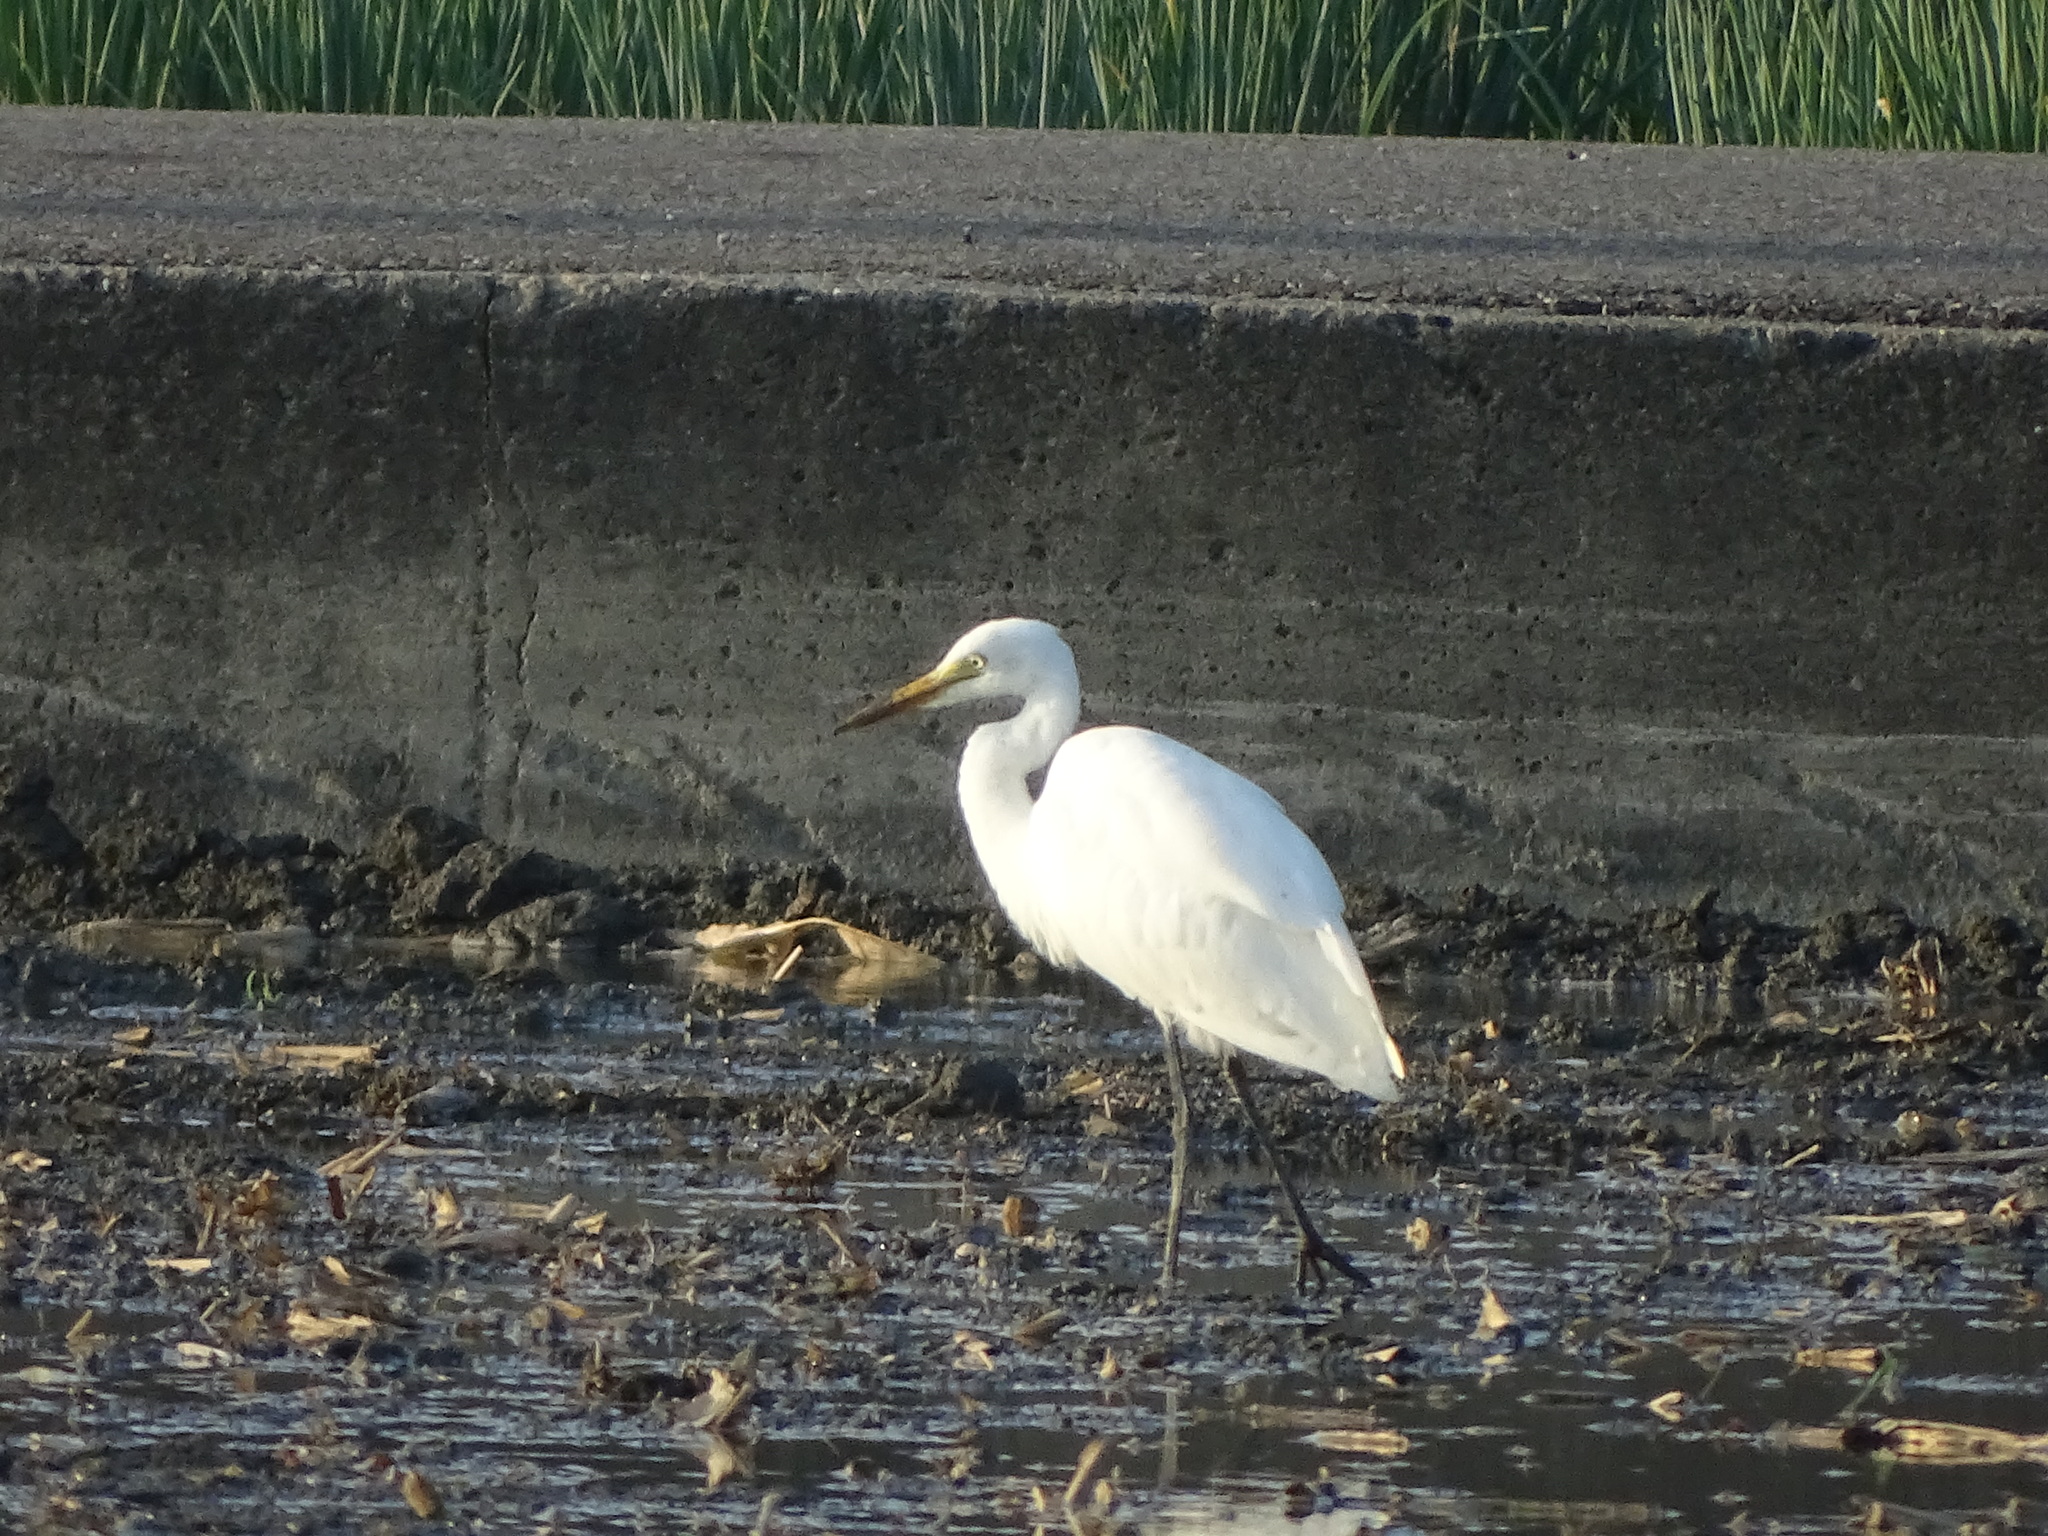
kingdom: Animalia
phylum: Chordata
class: Aves
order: Pelecaniformes
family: Ardeidae
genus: Egretta
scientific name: Egretta intermedia
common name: Intermediate egret
